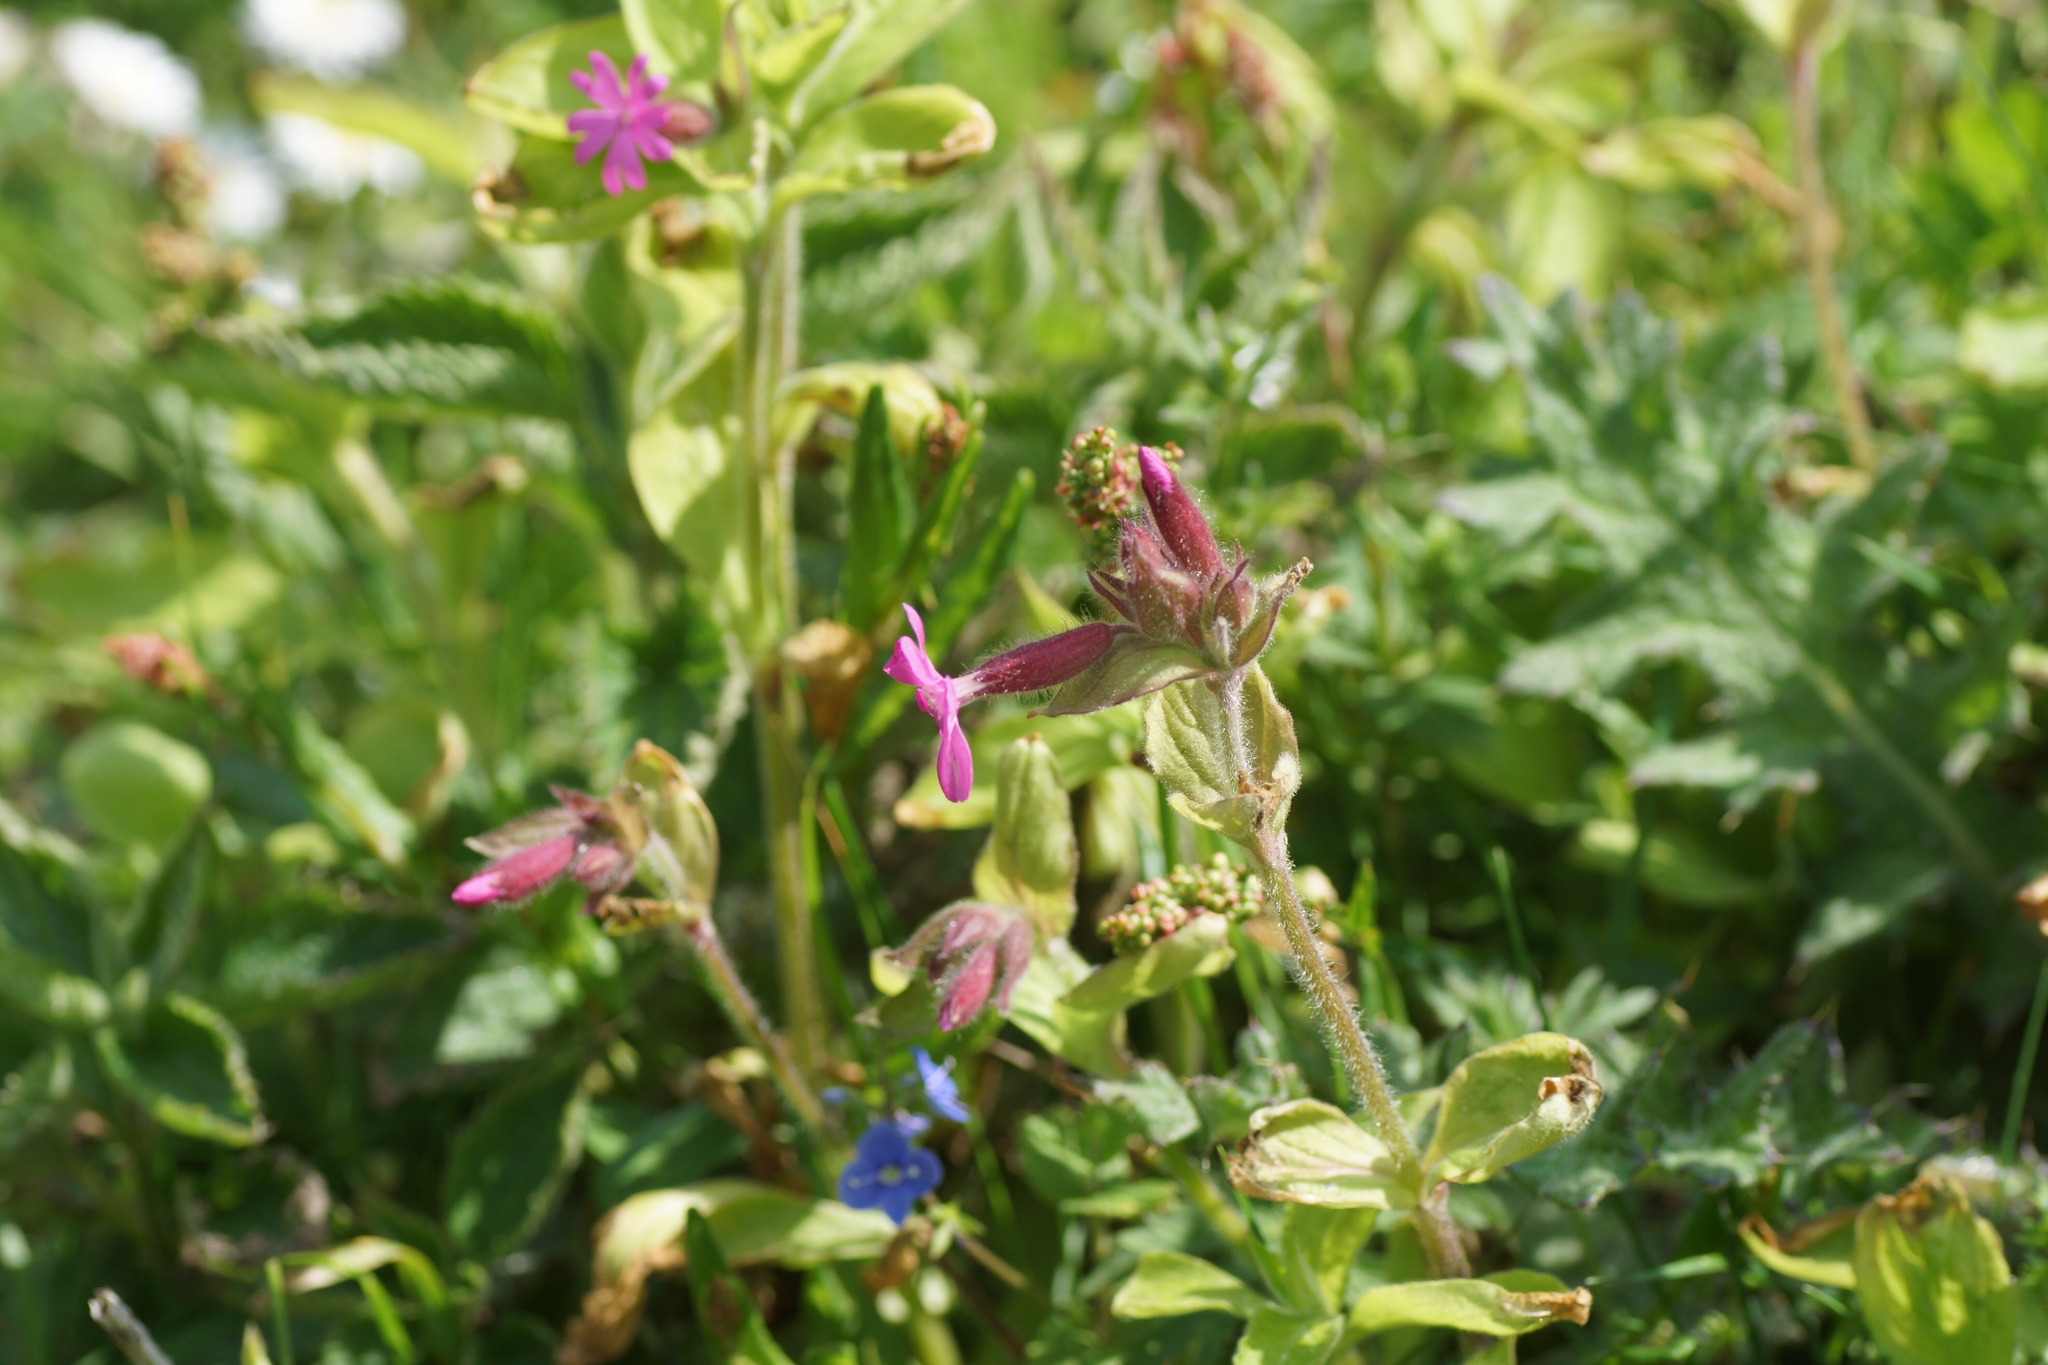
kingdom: Plantae
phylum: Tracheophyta
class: Magnoliopsida
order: Caryophyllales
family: Caryophyllaceae
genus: Silene
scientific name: Silene dioica
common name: Red campion
